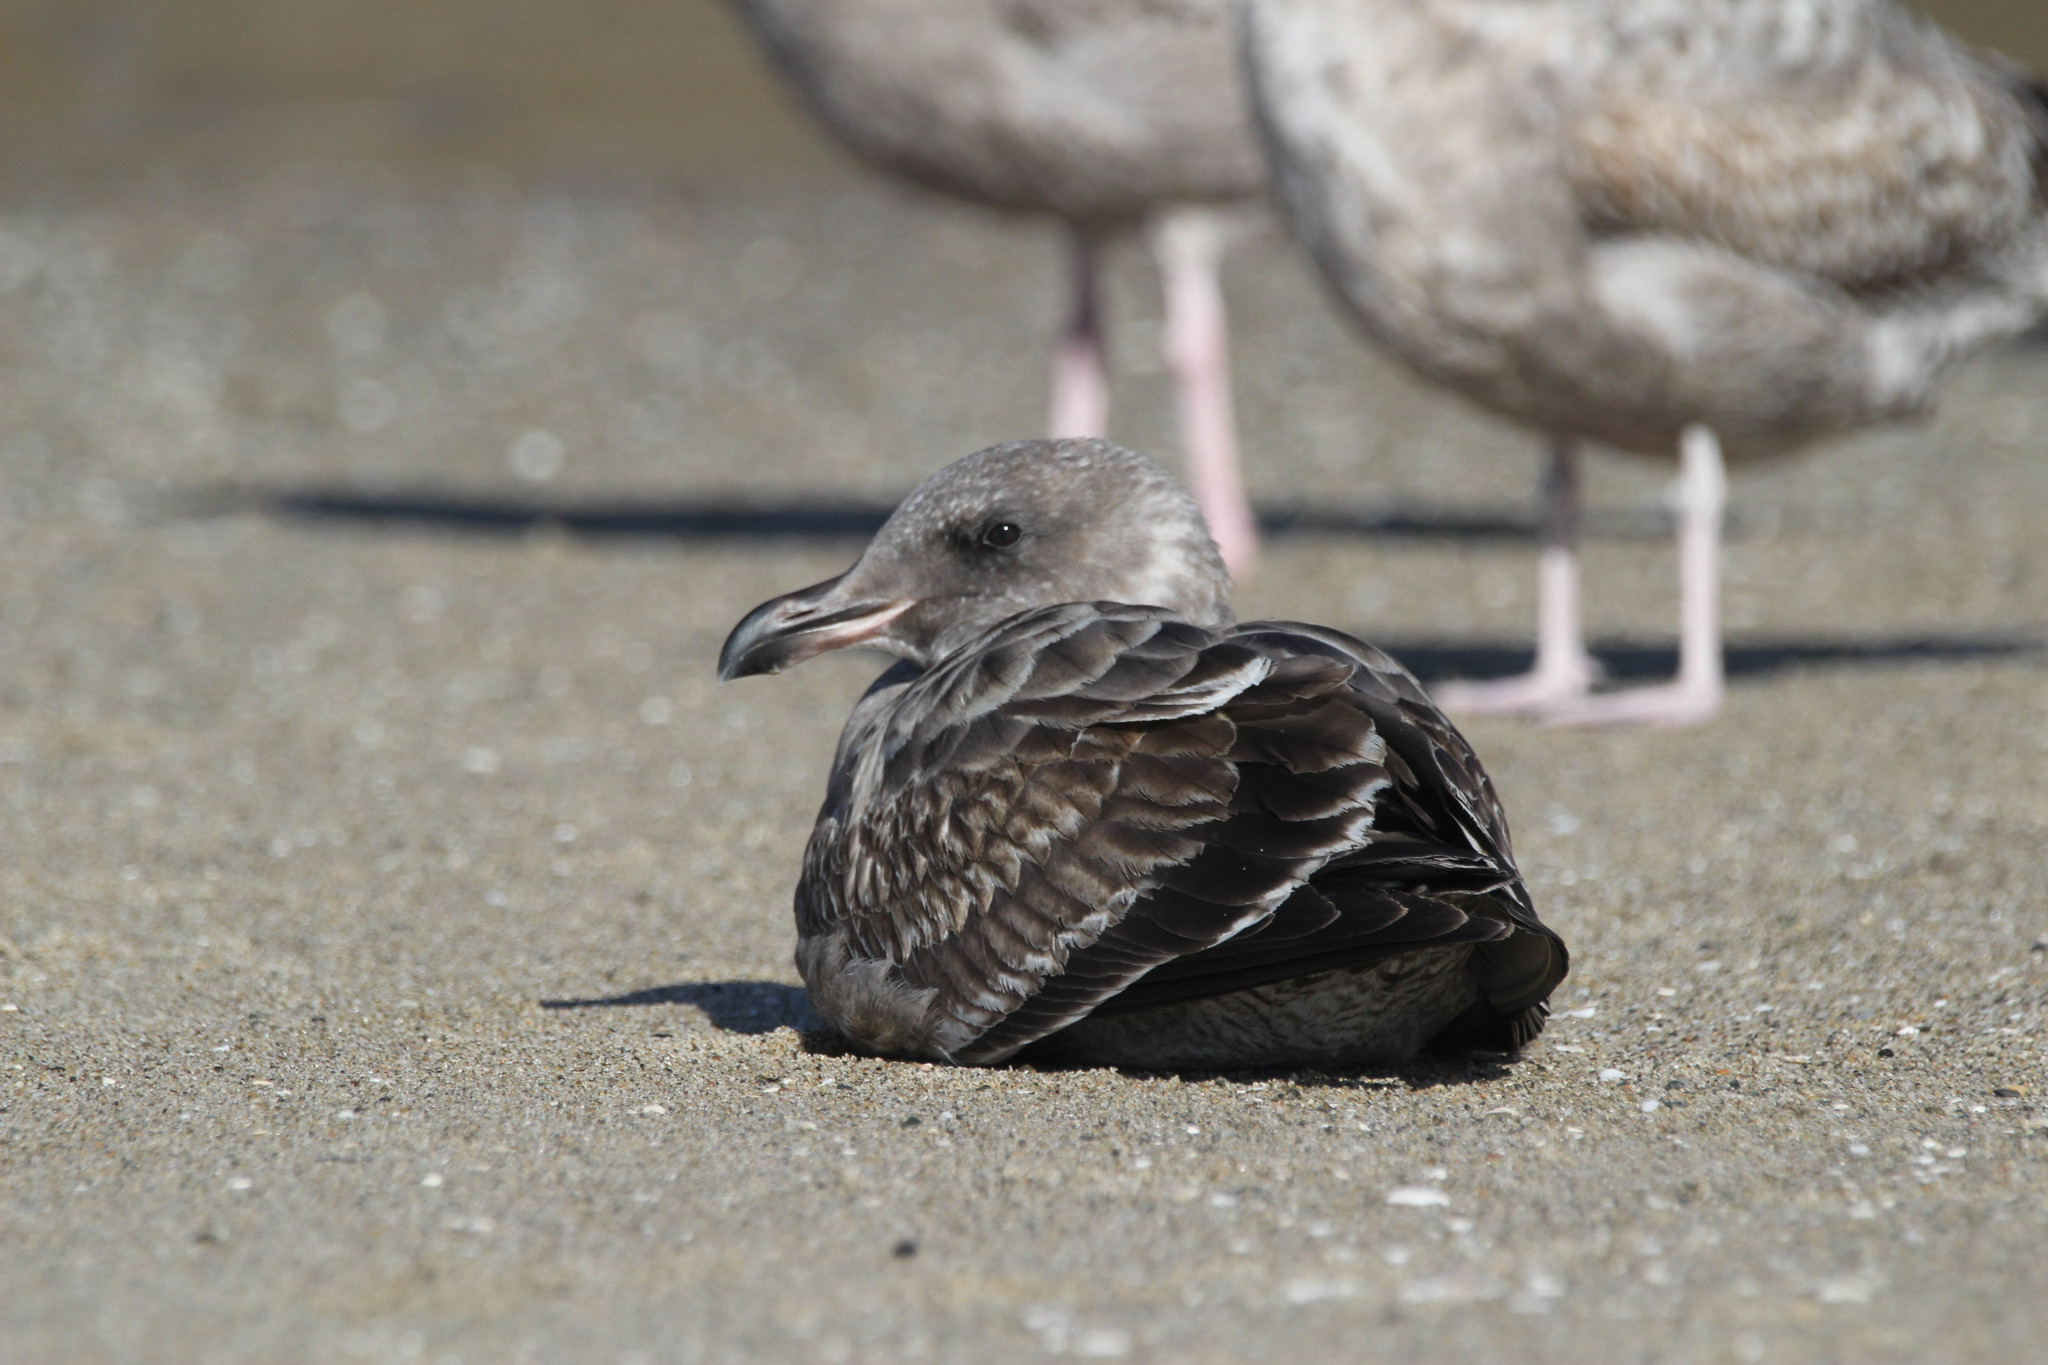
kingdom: Animalia
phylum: Chordata
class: Aves
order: Charadriiformes
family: Laridae
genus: Larus
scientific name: Larus occidentalis
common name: Western gull
